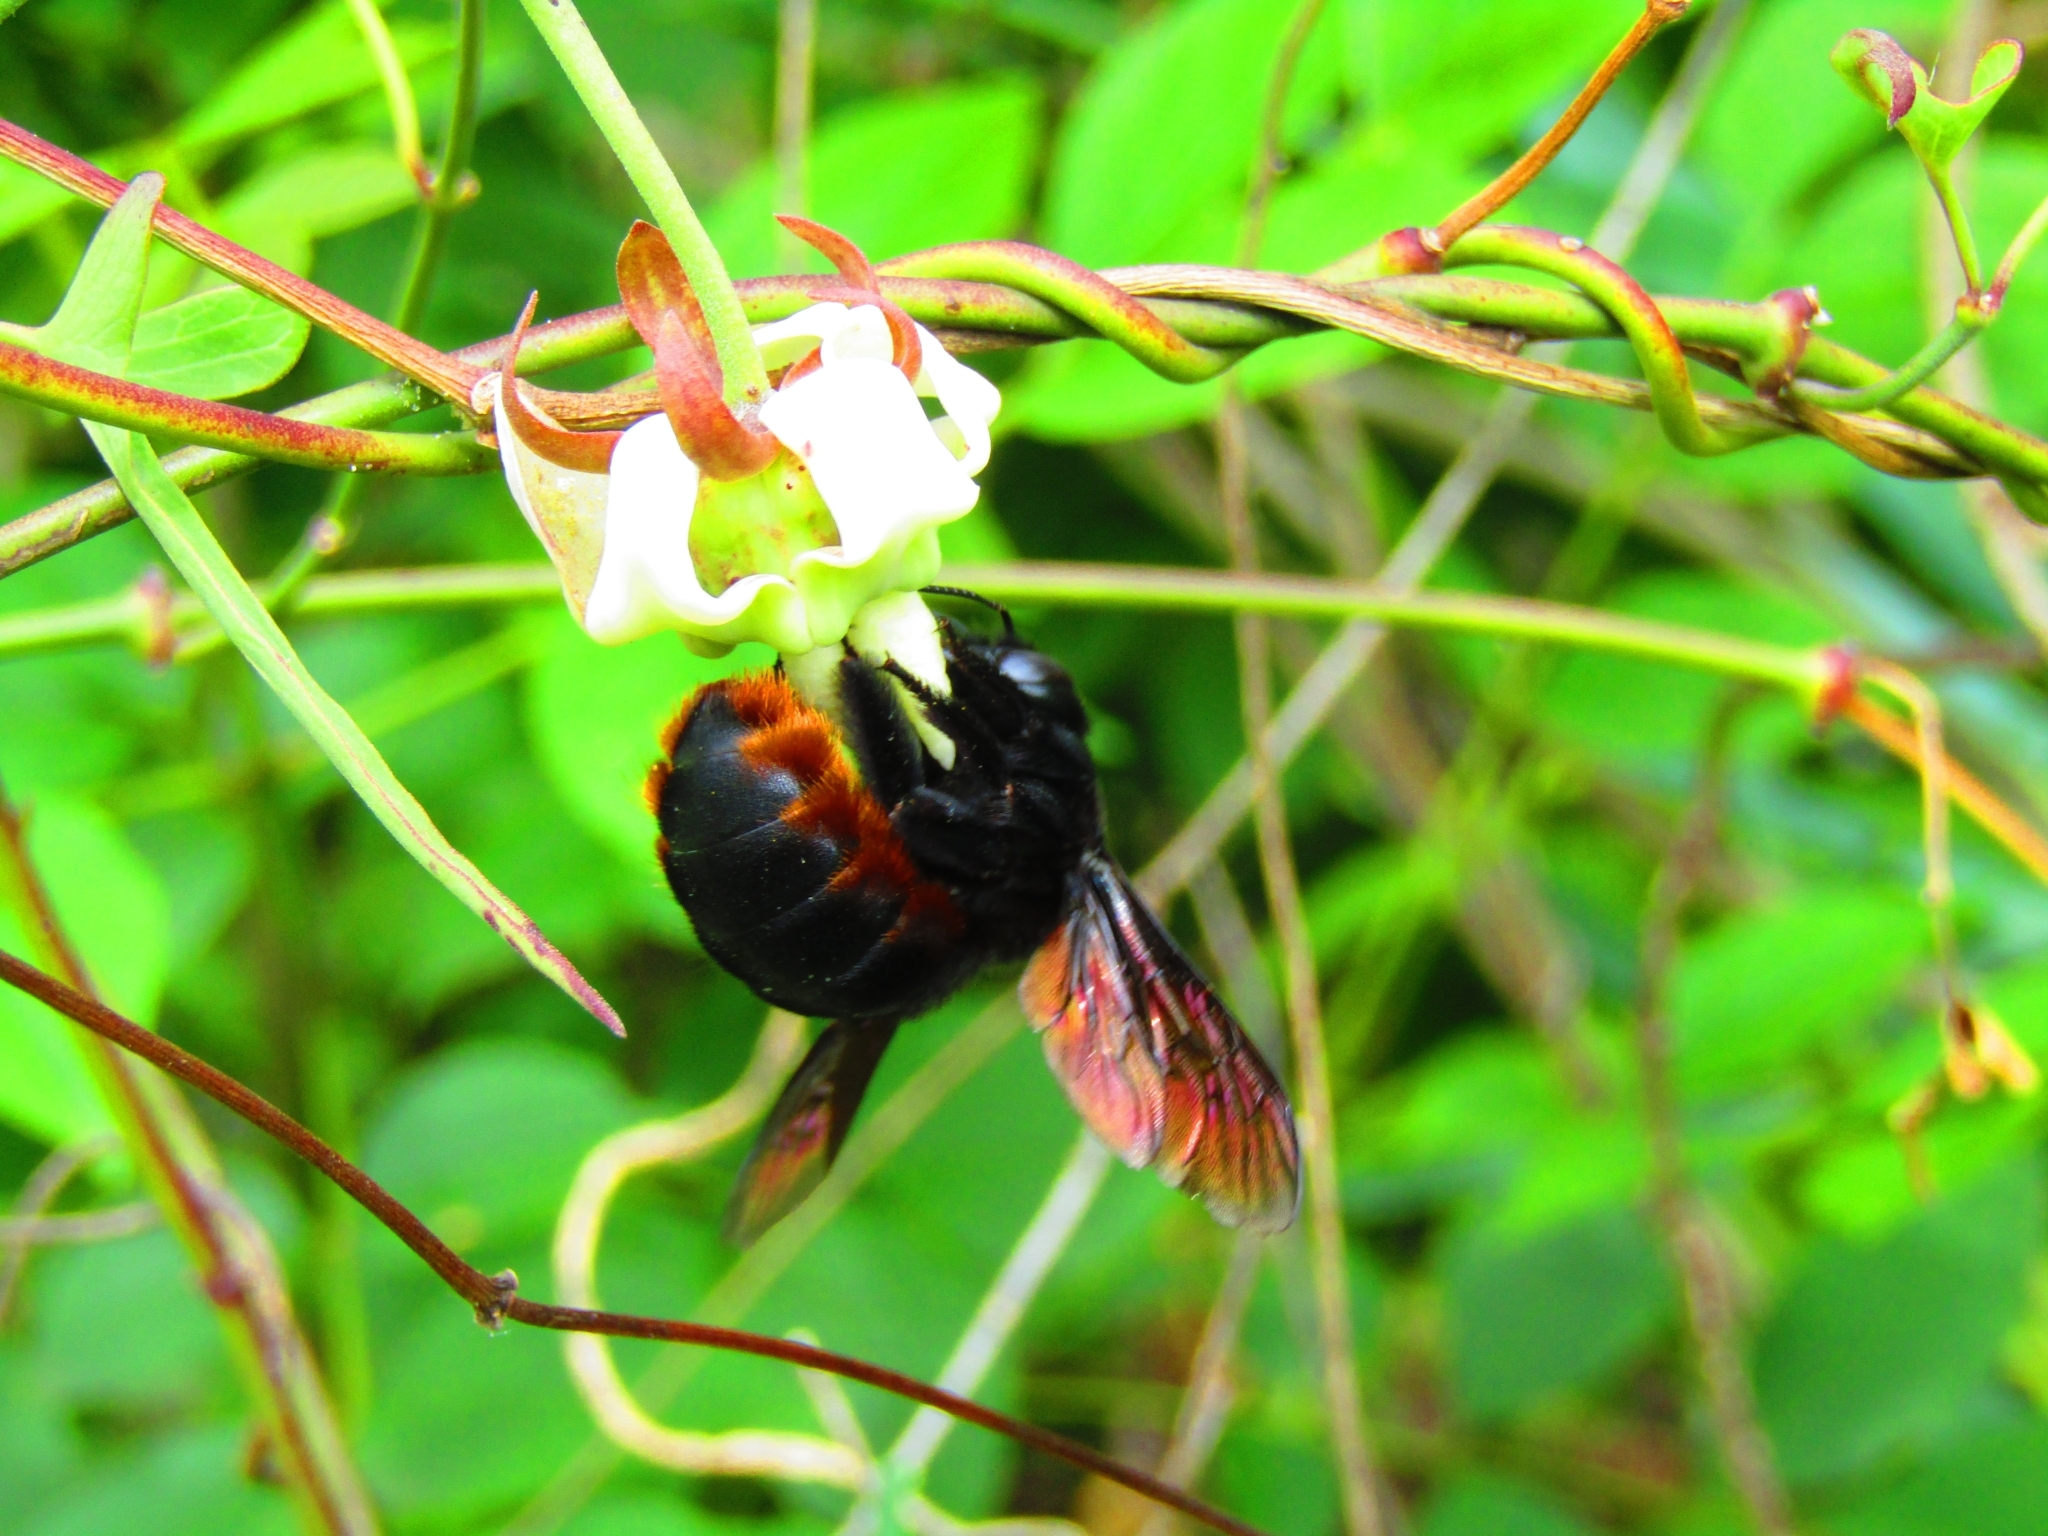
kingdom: Animalia
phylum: Arthropoda
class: Insecta
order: Hymenoptera
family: Apidae
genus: Xylocopa
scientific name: Xylocopa augusti
